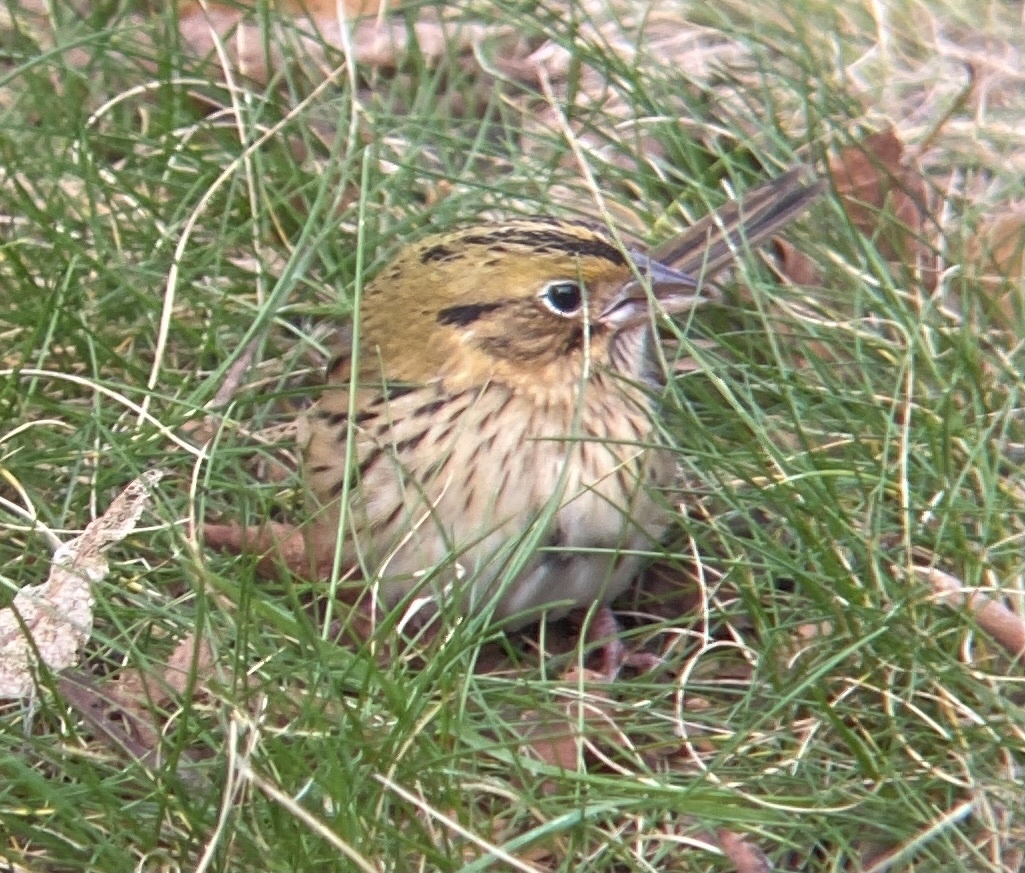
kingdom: Animalia
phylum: Chordata
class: Aves
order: Passeriformes
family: Passerellidae
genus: Centronyx
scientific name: Centronyx henslowii
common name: Henslow's sparrow
